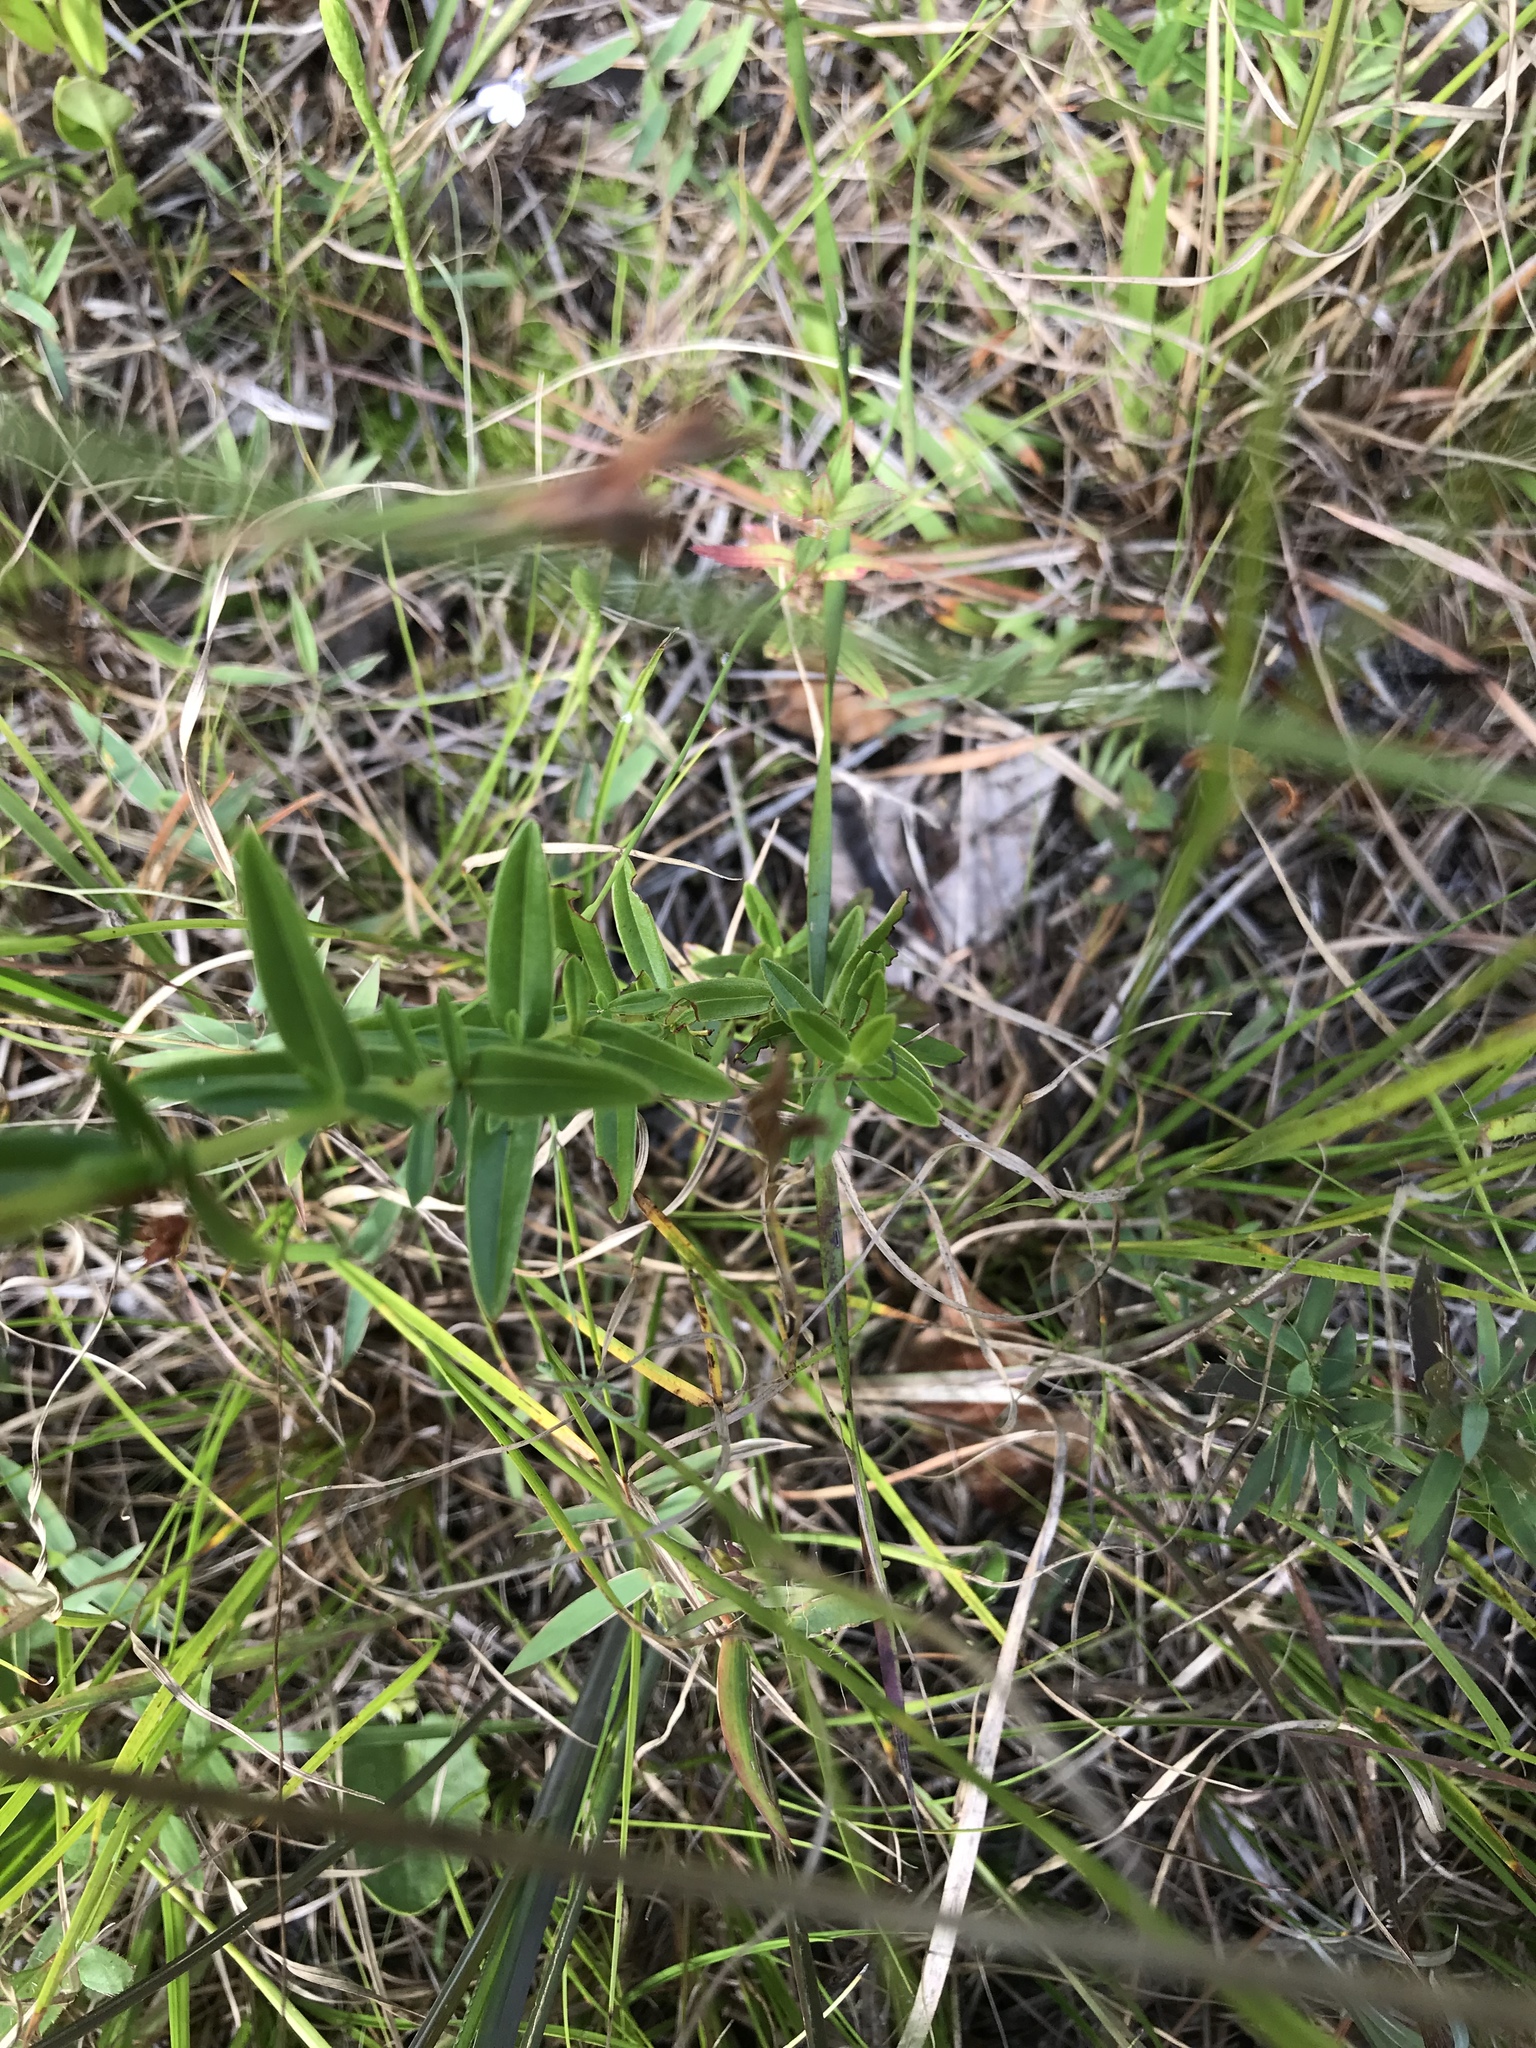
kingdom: Plantae
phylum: Tracheophyta
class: Magnoliopsida
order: Malpighiales
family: Hypericaceae
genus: Hypericum
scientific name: Hypericum cistifolium
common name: Round-pod st. john's-wort
